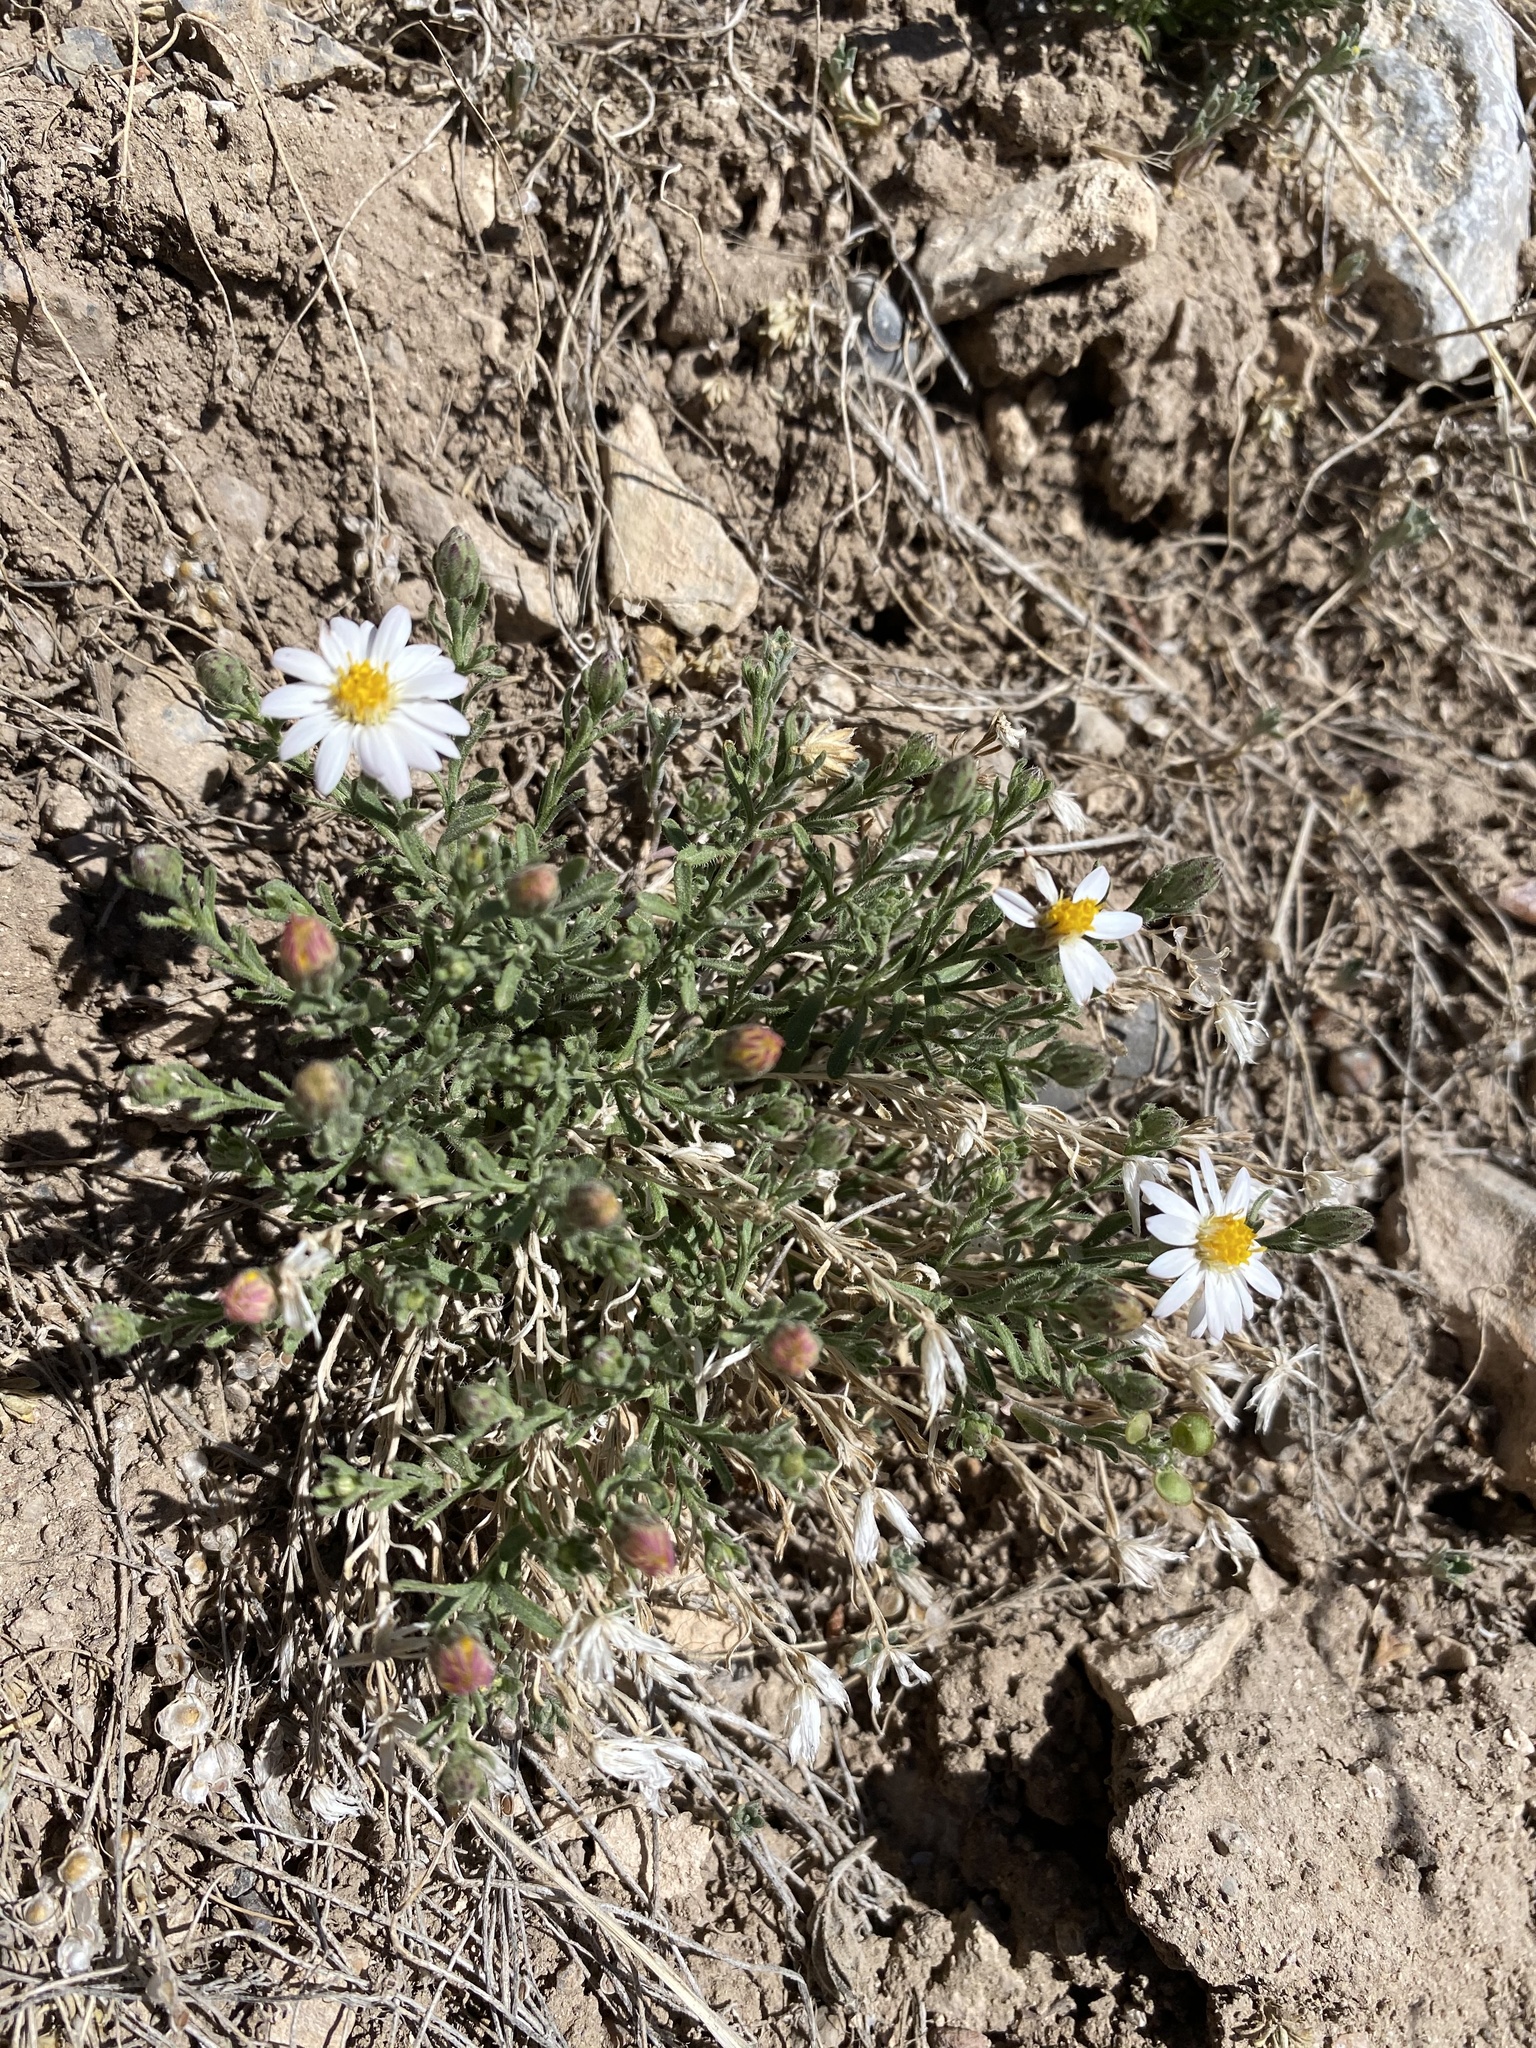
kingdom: Plantae
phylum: Tracheophyta
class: Magnoliopsida
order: Asterales
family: Asteraceae
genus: Chaetopappa
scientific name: Chaetopappa ericoides
